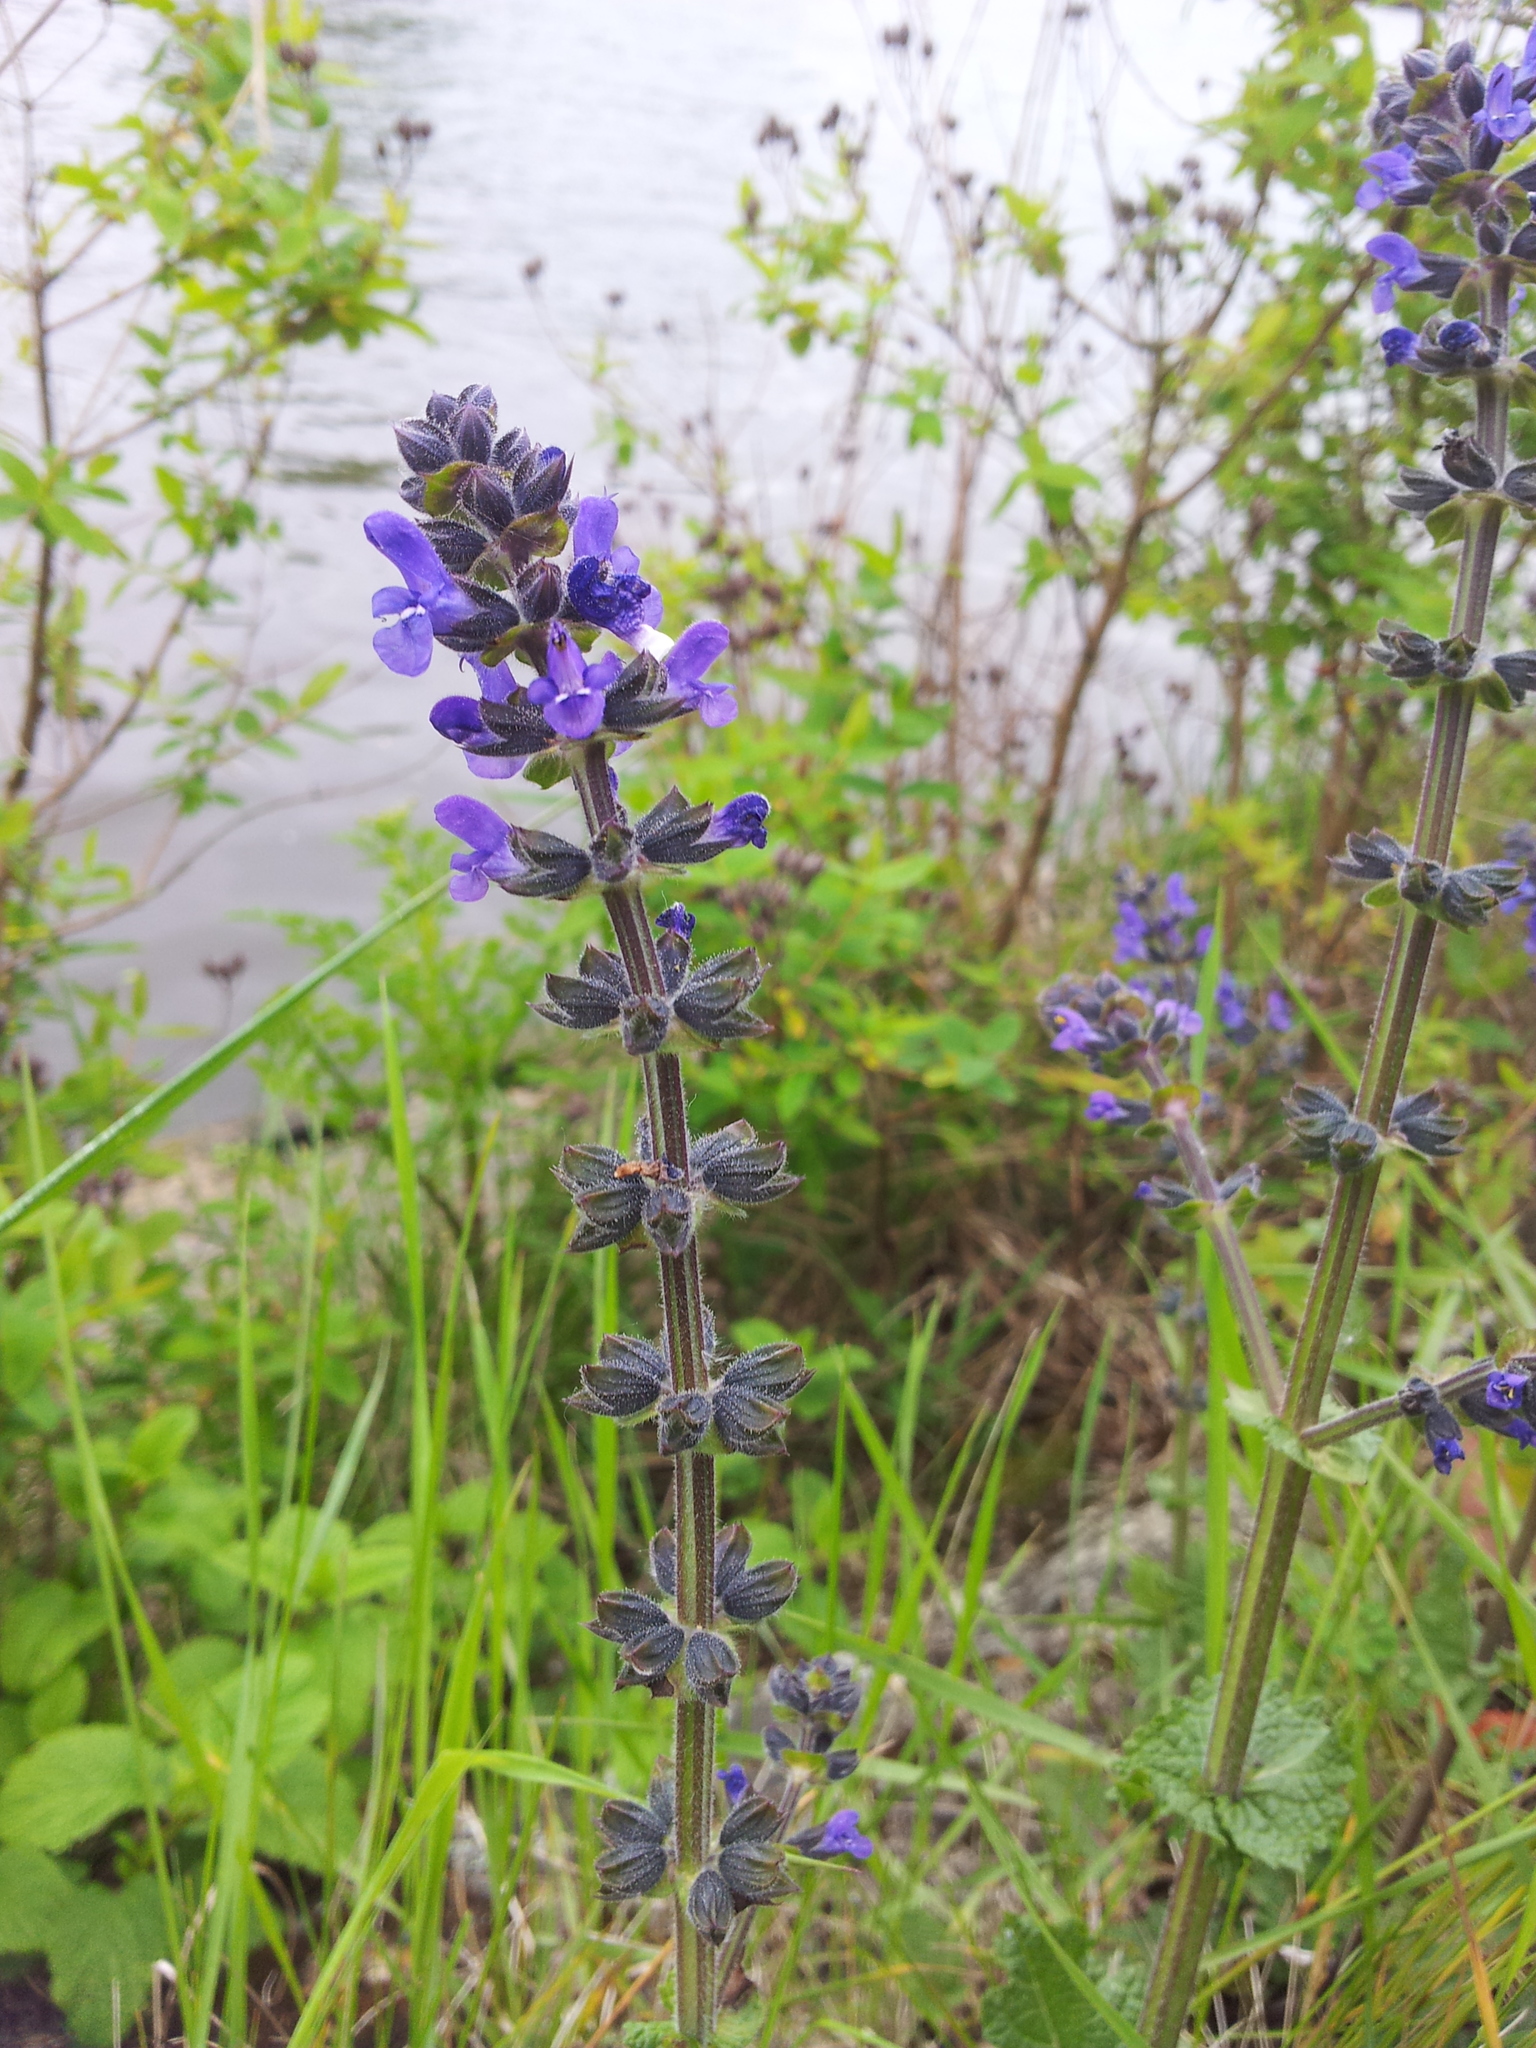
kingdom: Plantae
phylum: Tracheophyta
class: Magnoliopsida
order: Lamiales
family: Lamiaceae
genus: Salvia
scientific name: Salvia verbenaca
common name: Wild clary
